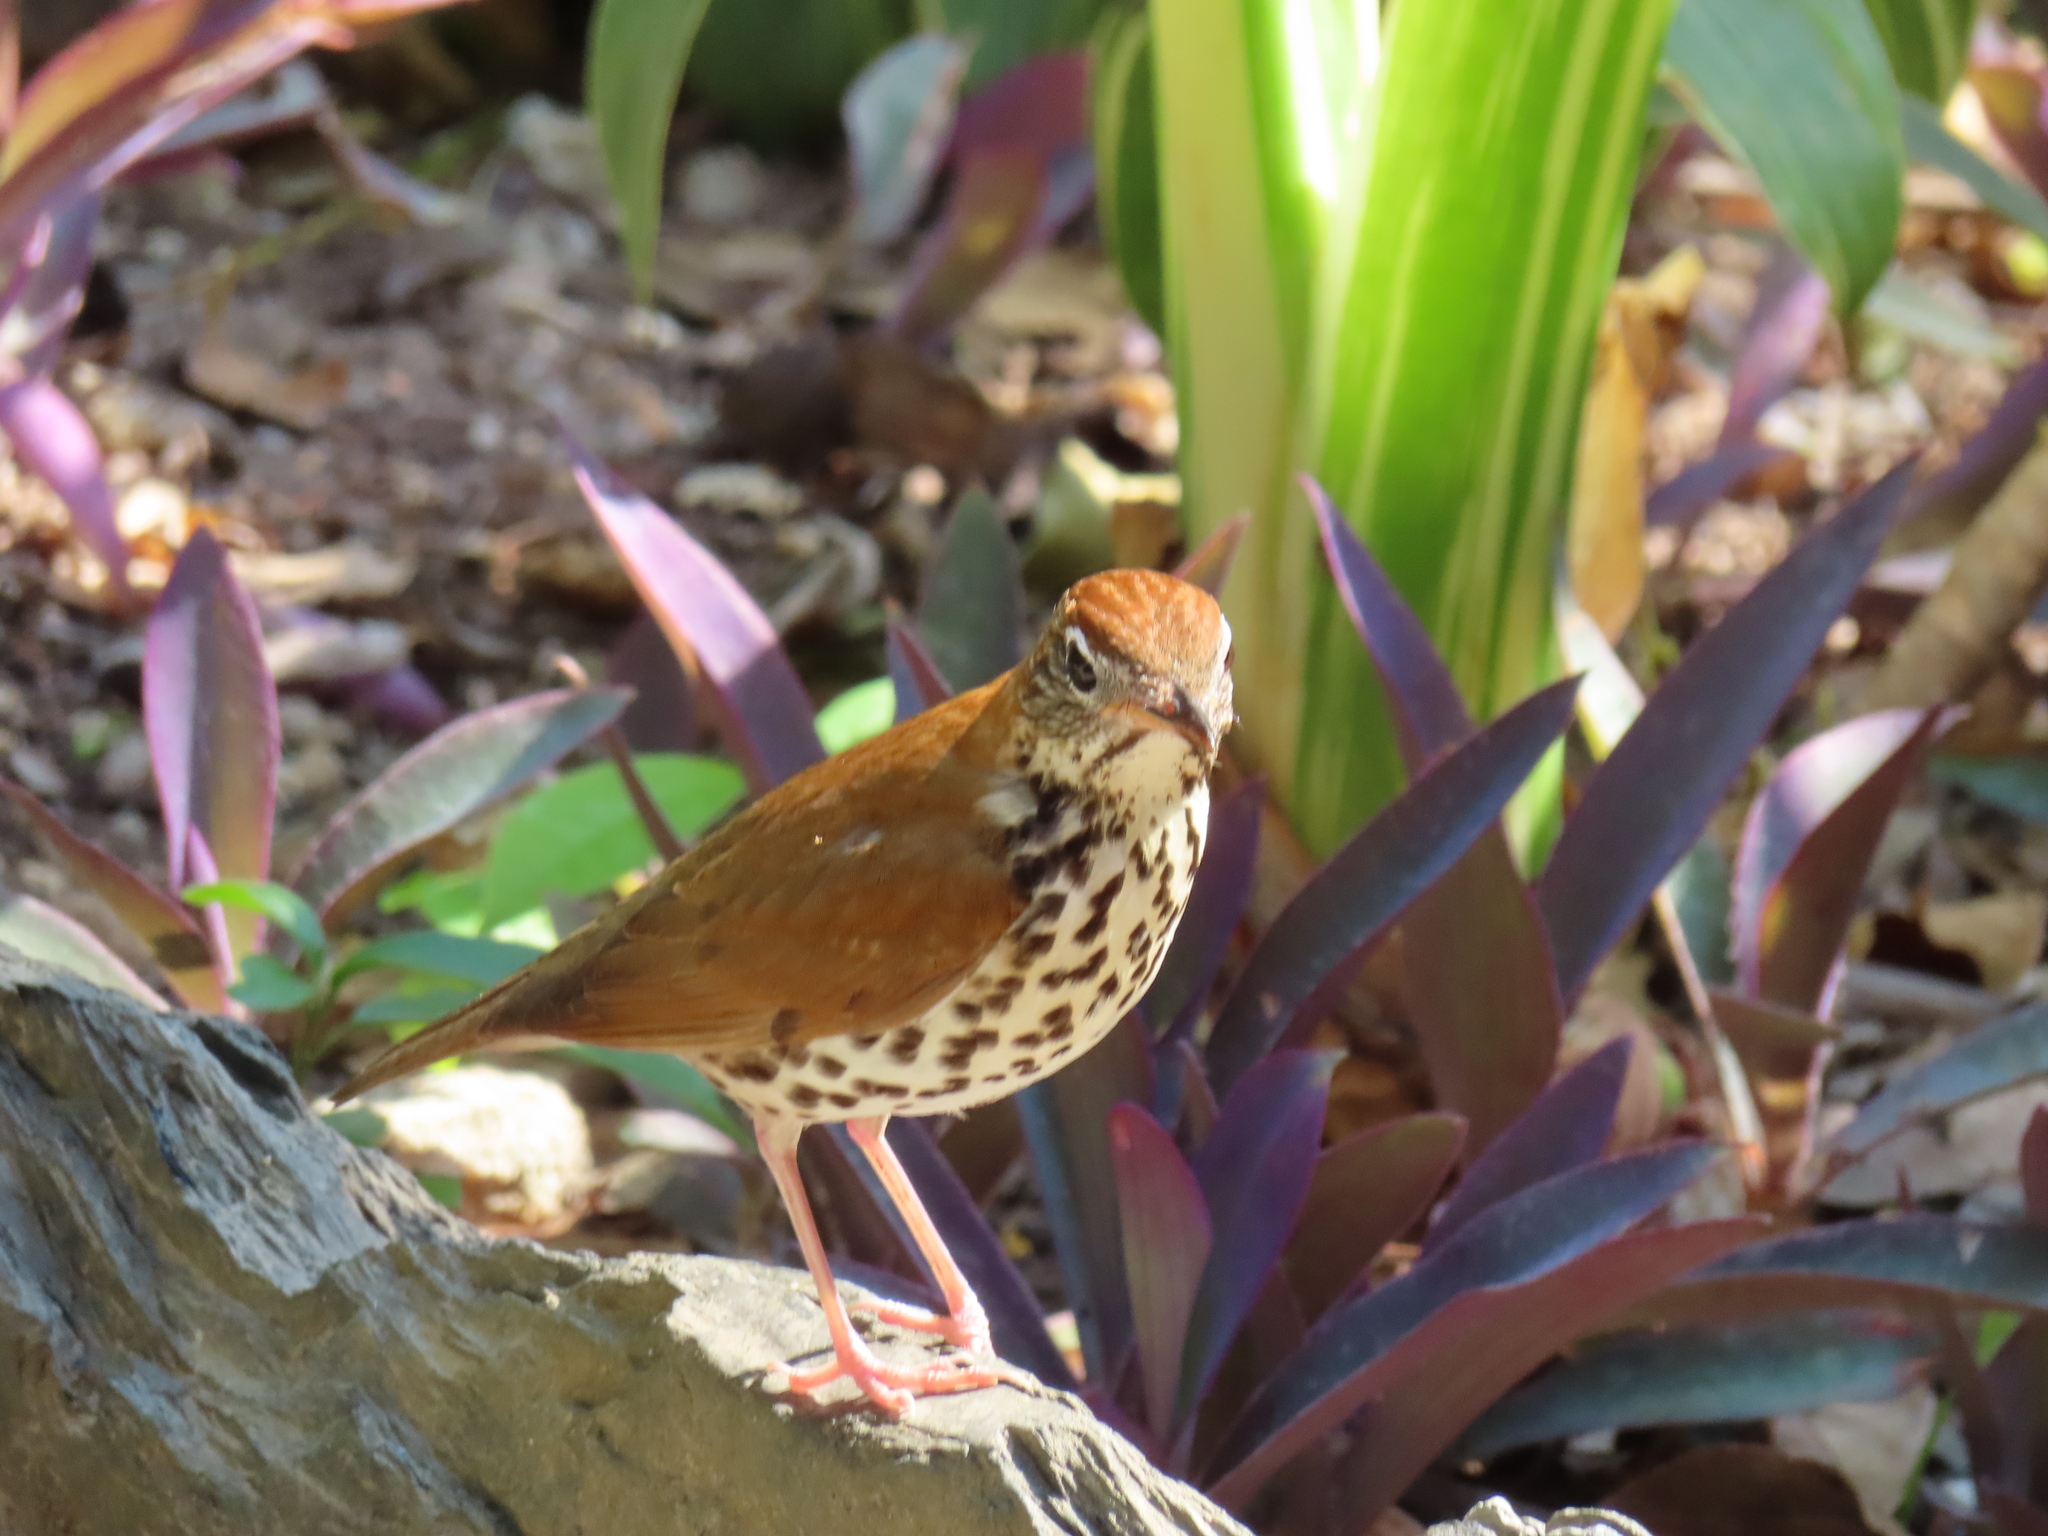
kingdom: Animalia
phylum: Chordata
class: Aves
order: Passeriformes
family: Turdidae
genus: Hylocichla
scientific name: Hylocichla mustelina
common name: Wood thrush
